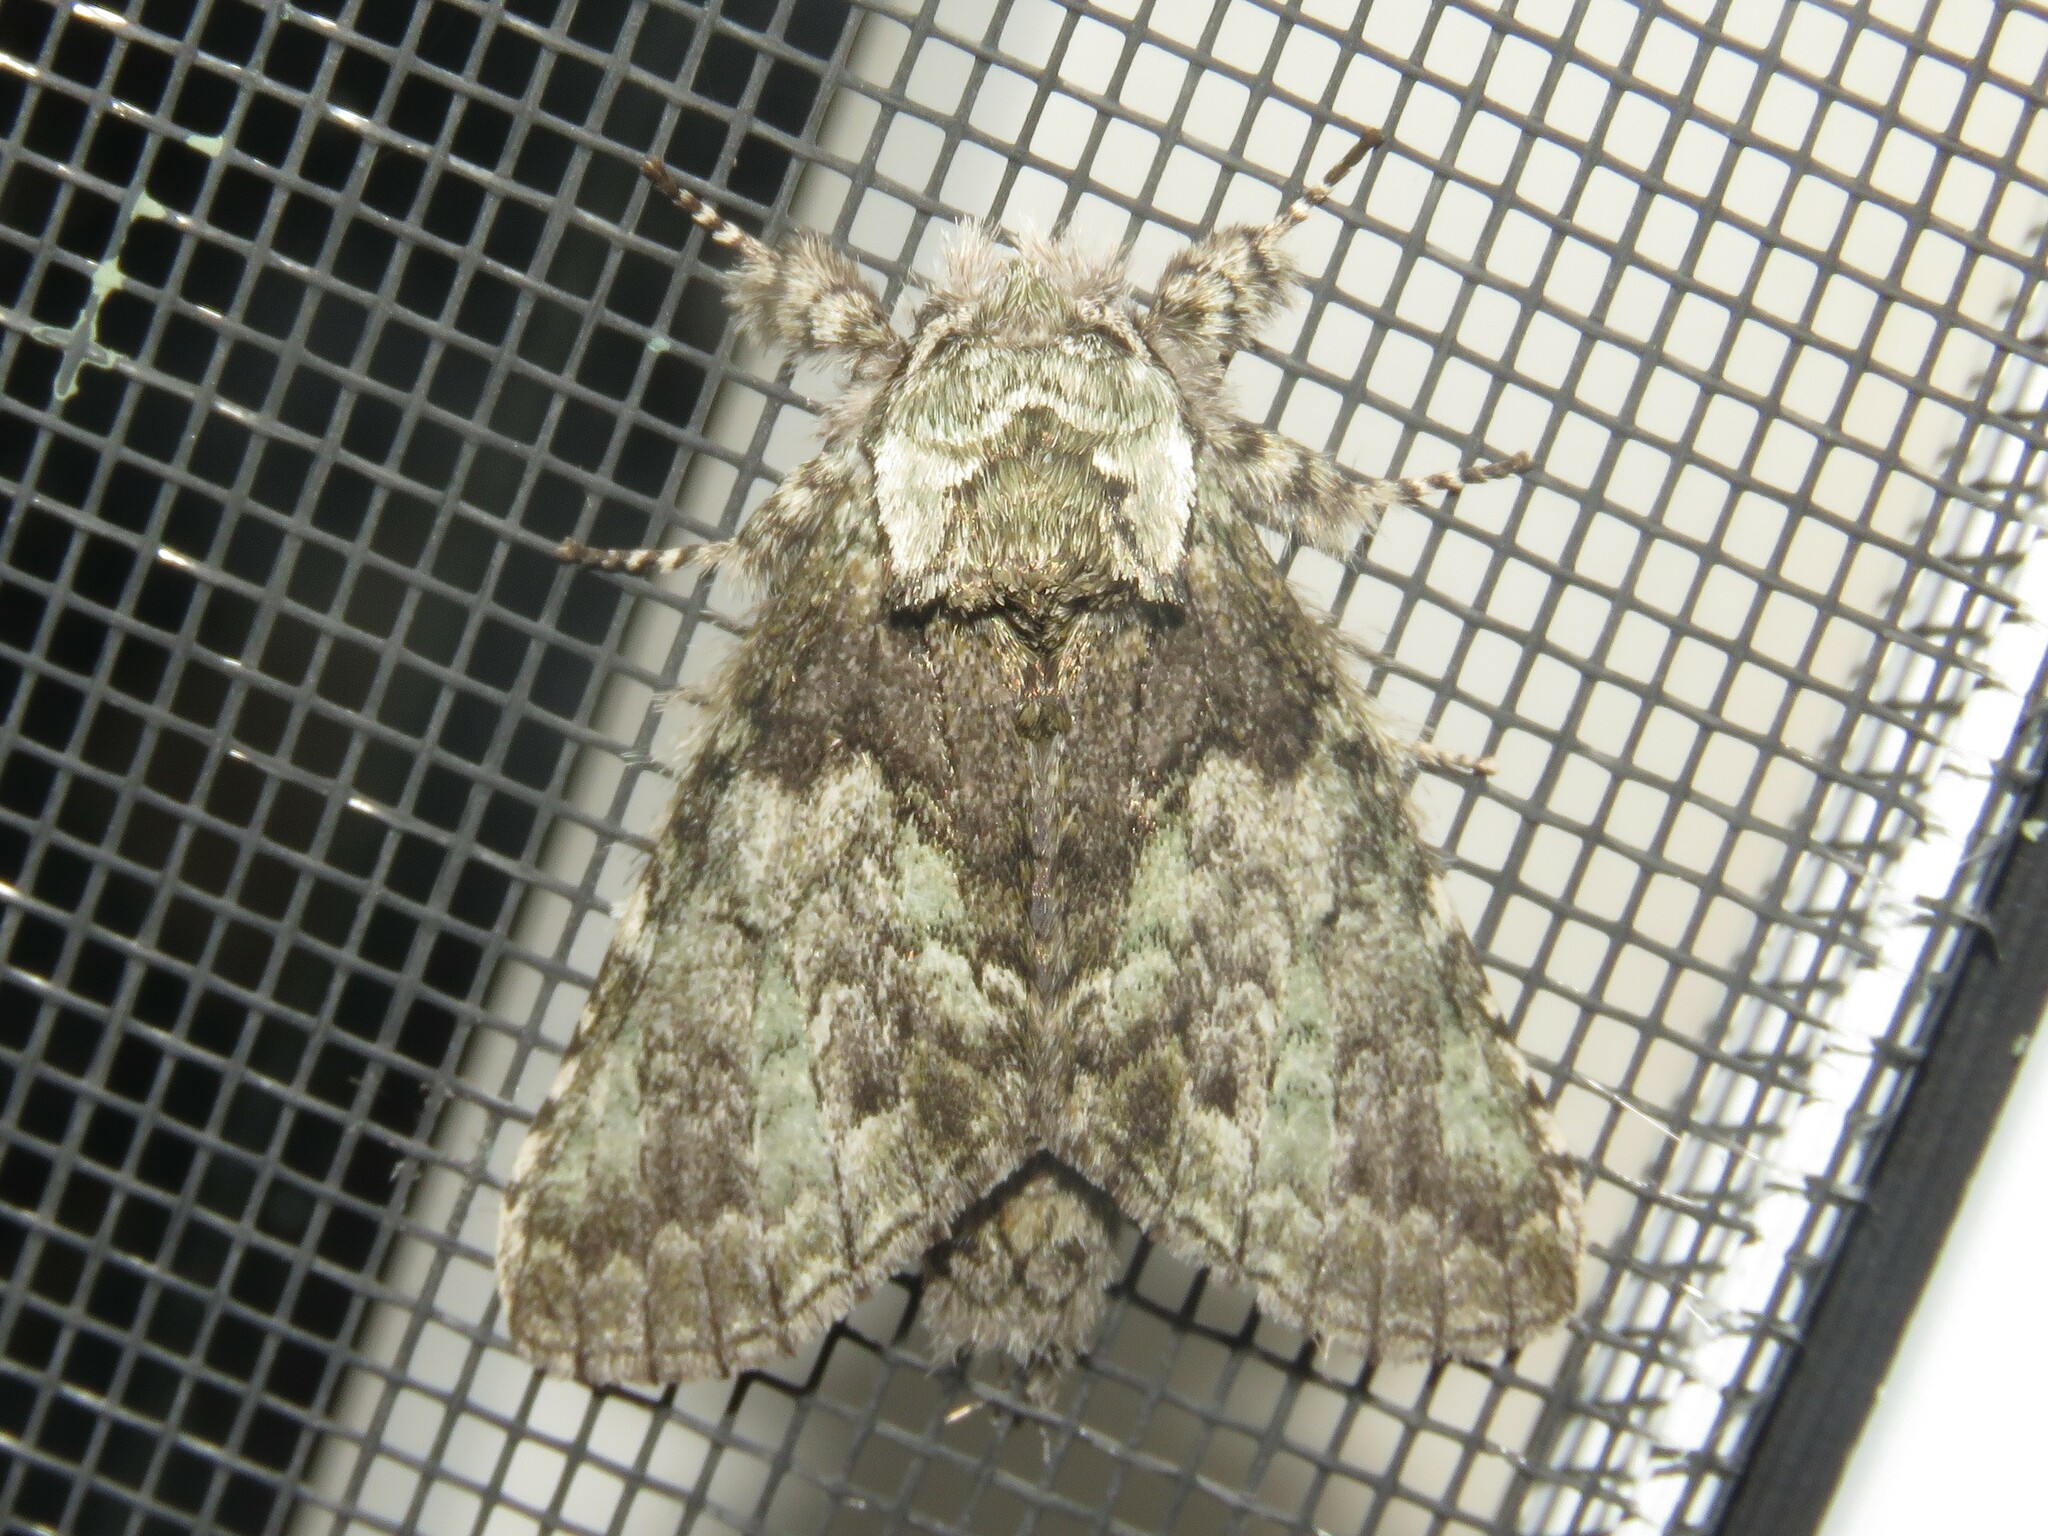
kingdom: Animalia
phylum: Arthropoda
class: Insecta
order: Lepidoptera
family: Notodontidae
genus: Macrurocampa
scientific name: Macrurocampa marthesia
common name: Mottled prominent
